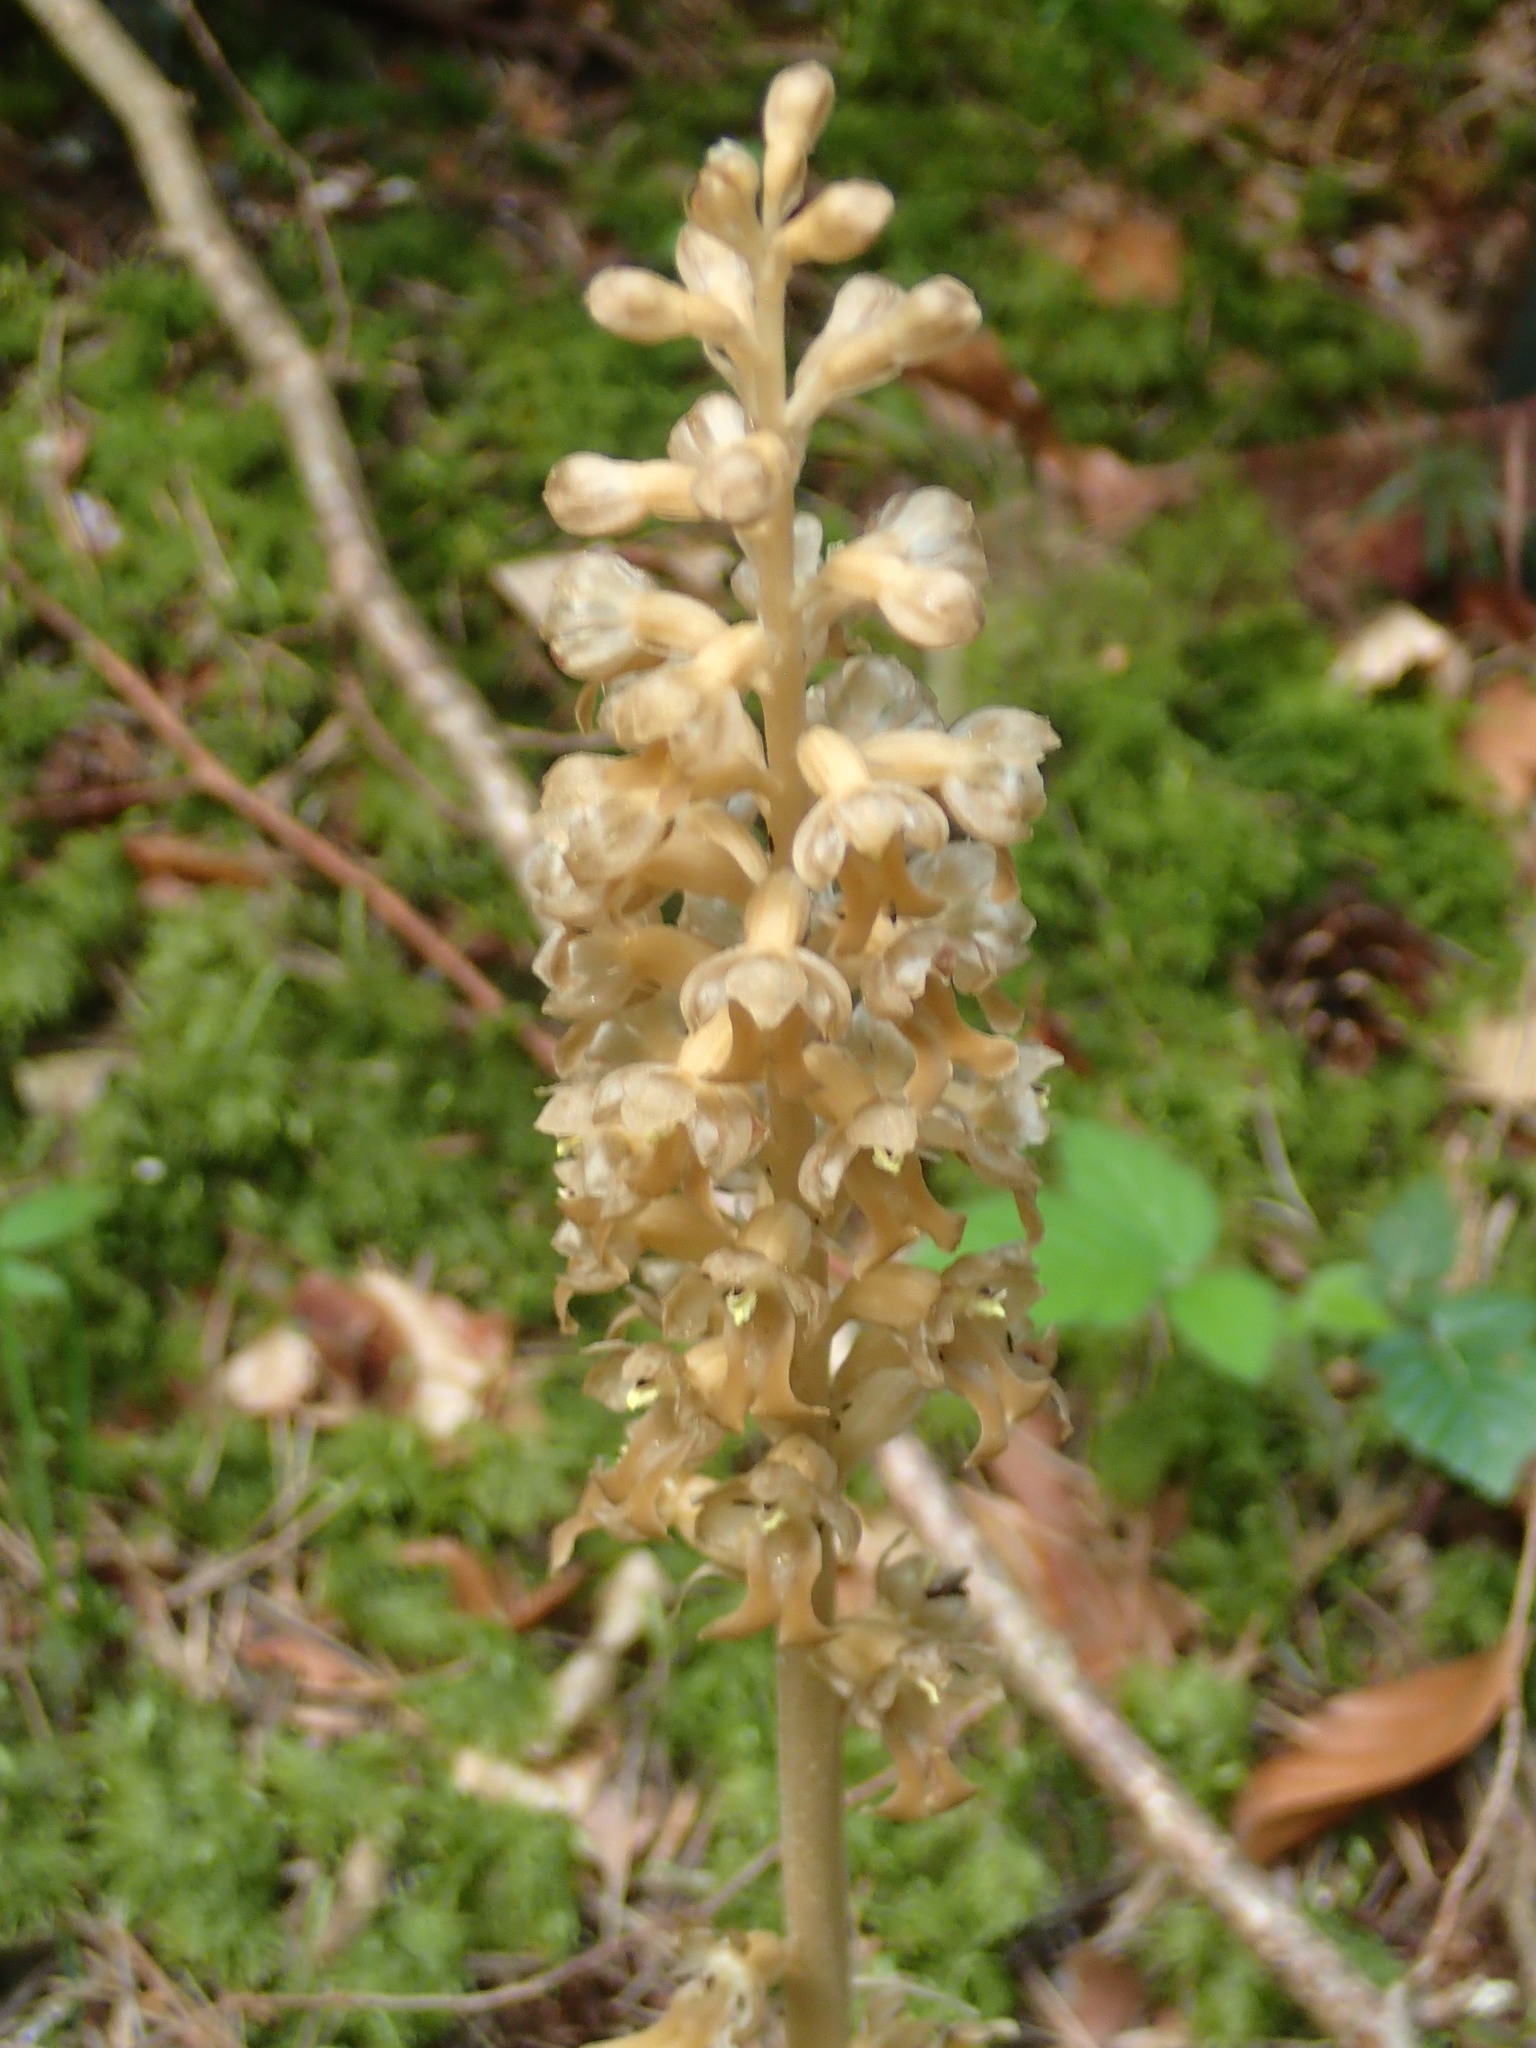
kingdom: Plantae
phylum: Tracheophyta
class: Liliopsida
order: Asparagales
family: Orchidaceae
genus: Neottia
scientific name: Neottia nidus-avis
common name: Bird's-nest orchid
